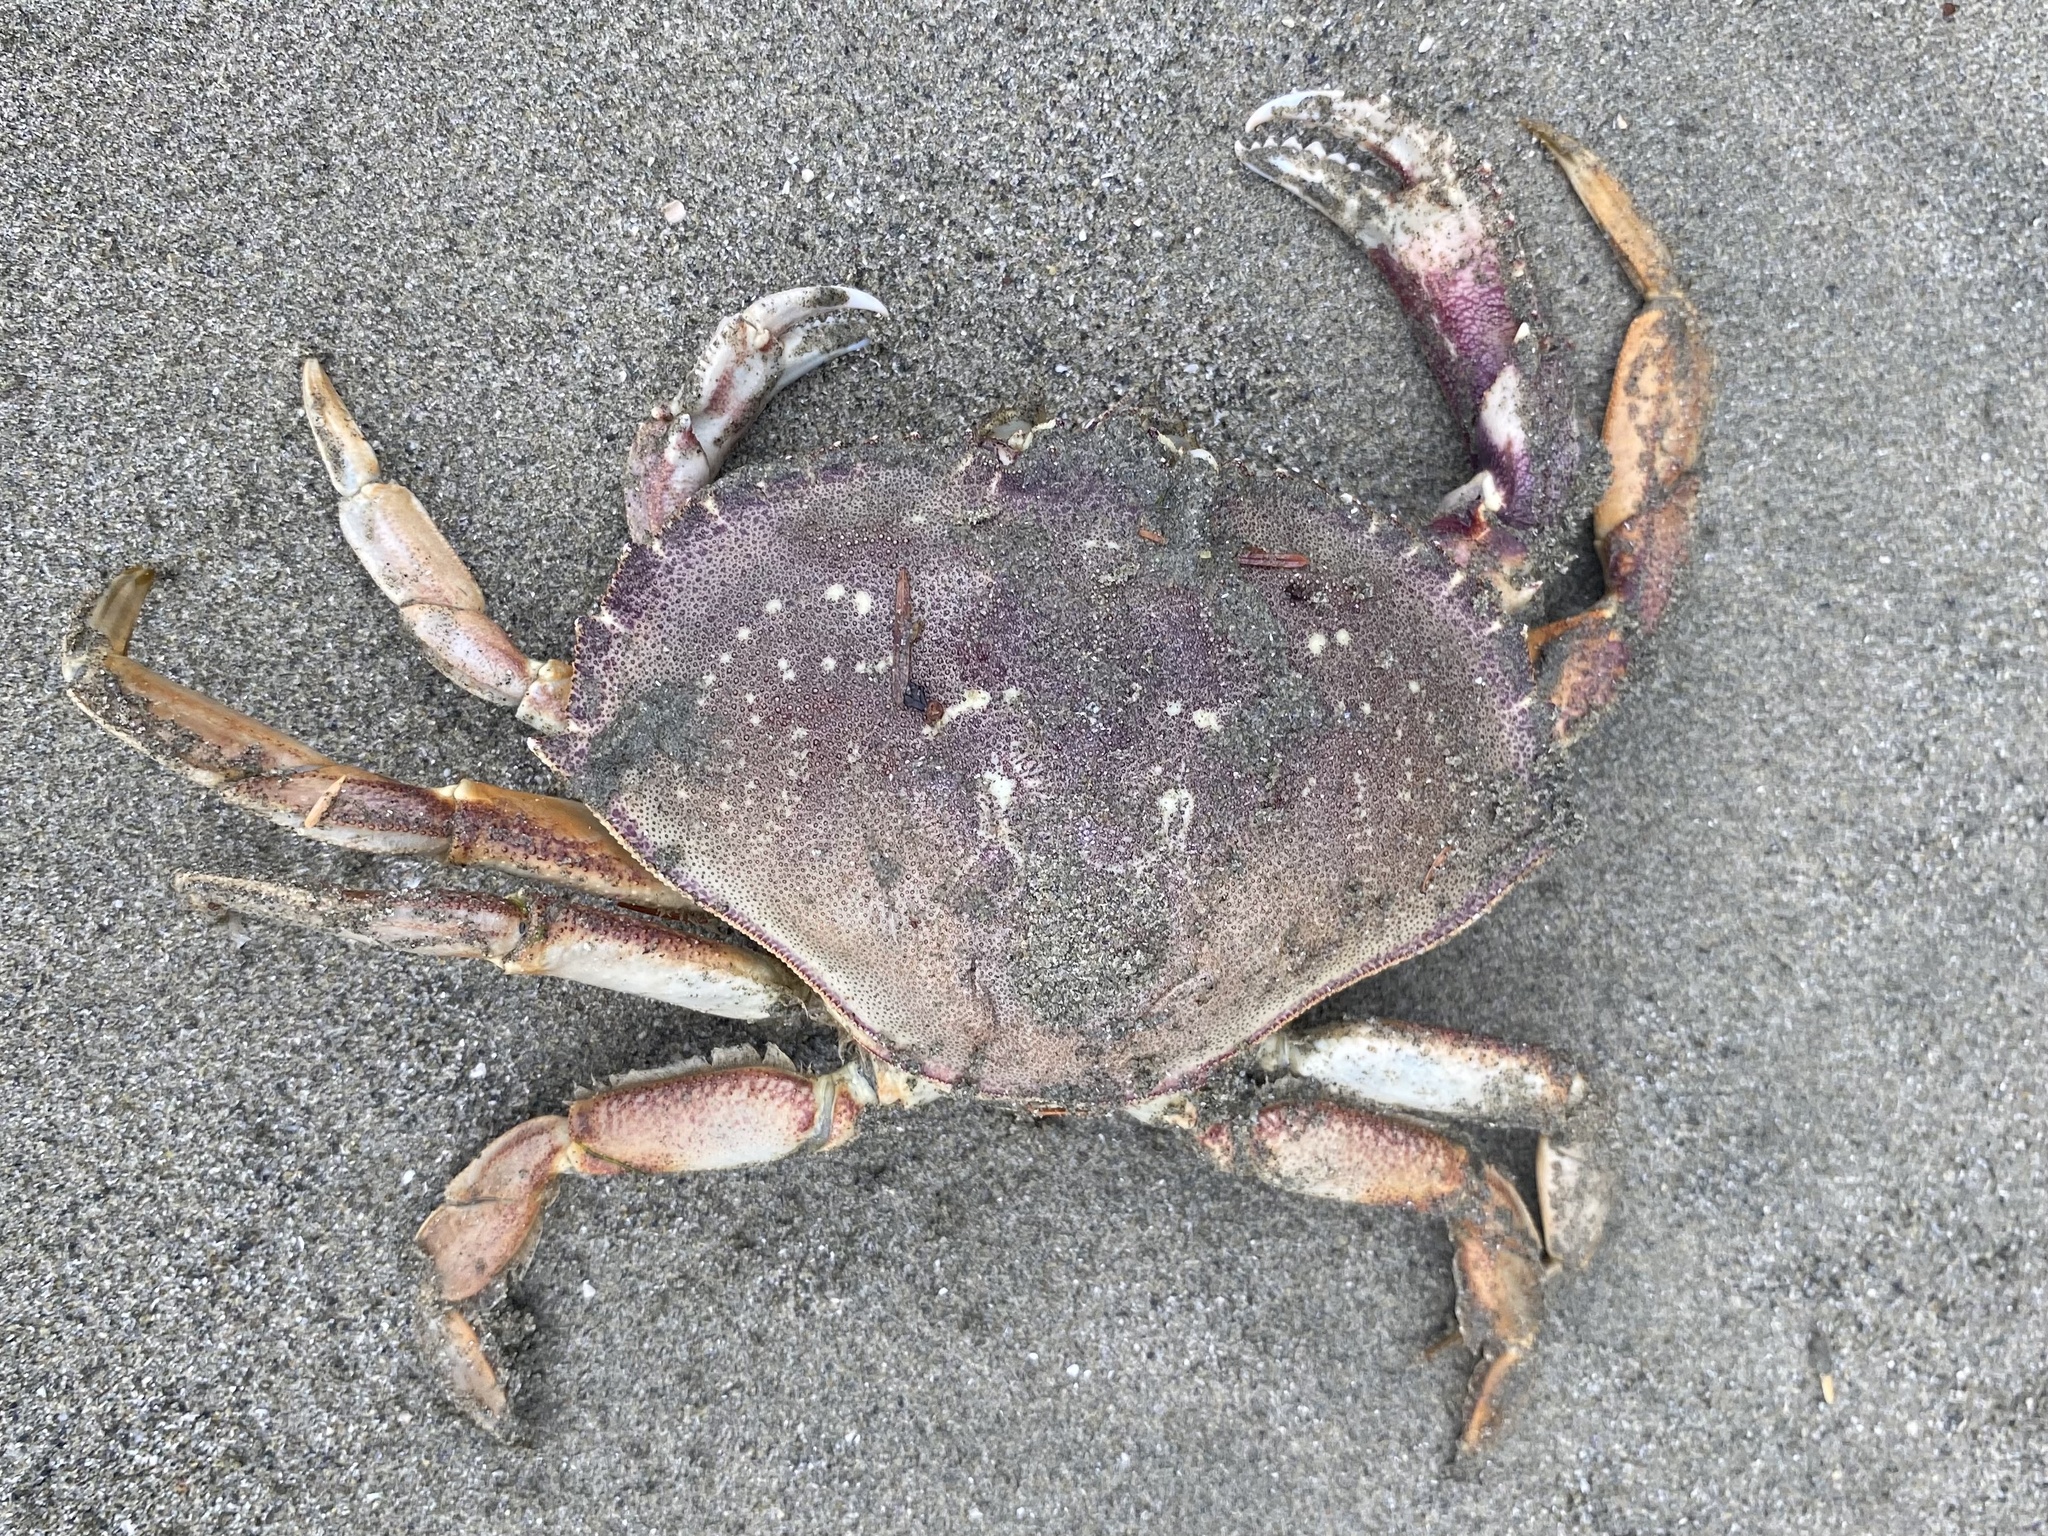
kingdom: Animalia
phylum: Arthropoda
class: Malacostraca
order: Decapoda
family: Cancridae
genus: Metacarcinus
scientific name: Metacarcinus magister
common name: Californian crab
